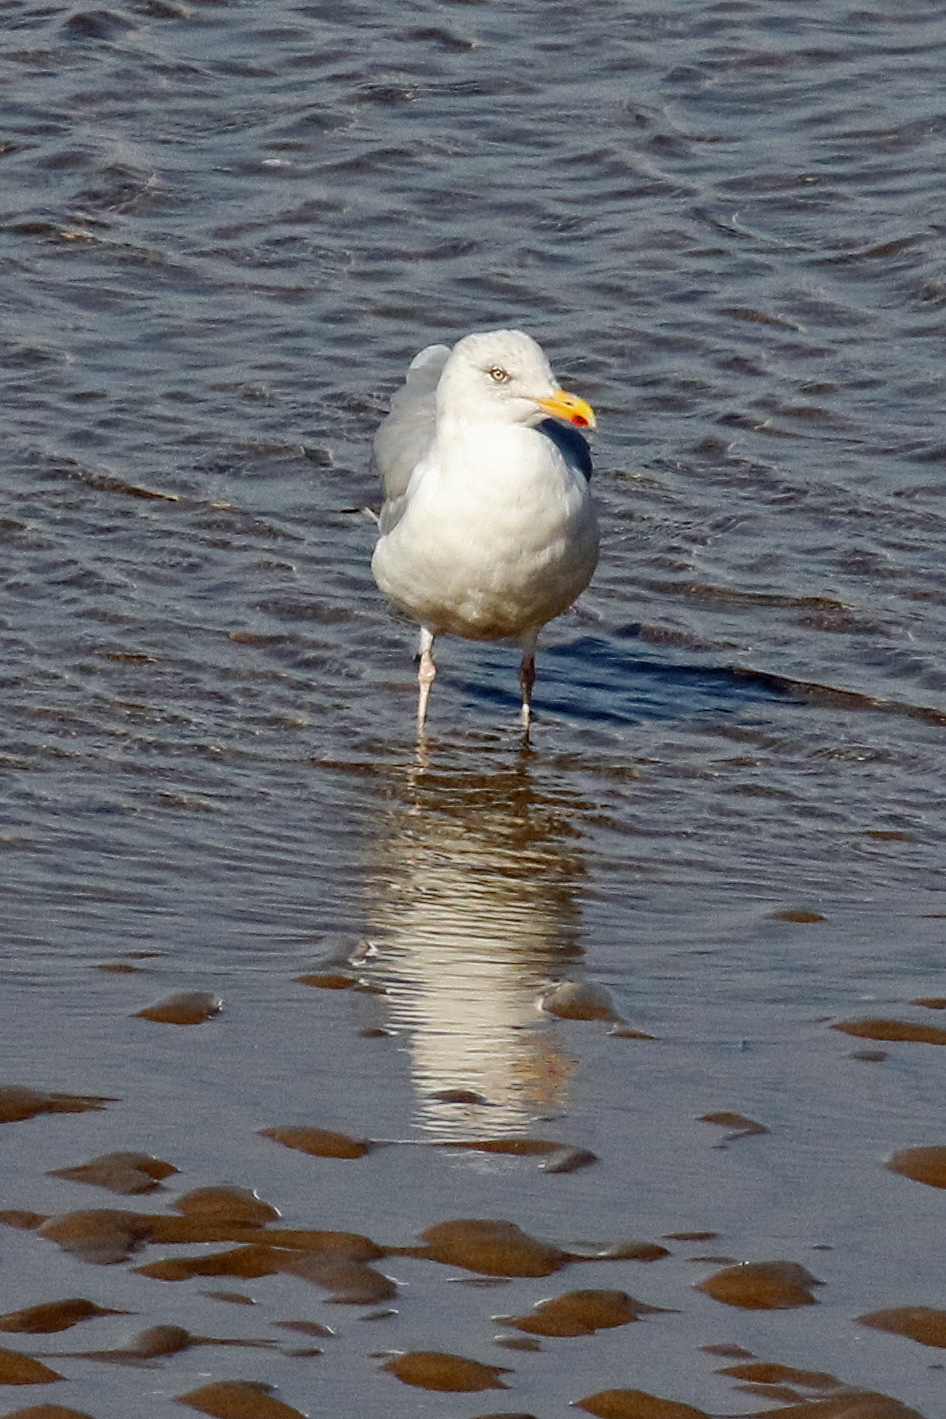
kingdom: Animalia
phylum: Chordata
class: Aves
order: Charadriiformes
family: Laridae
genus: Larus
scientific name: Larus argentatus
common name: Herring gull
